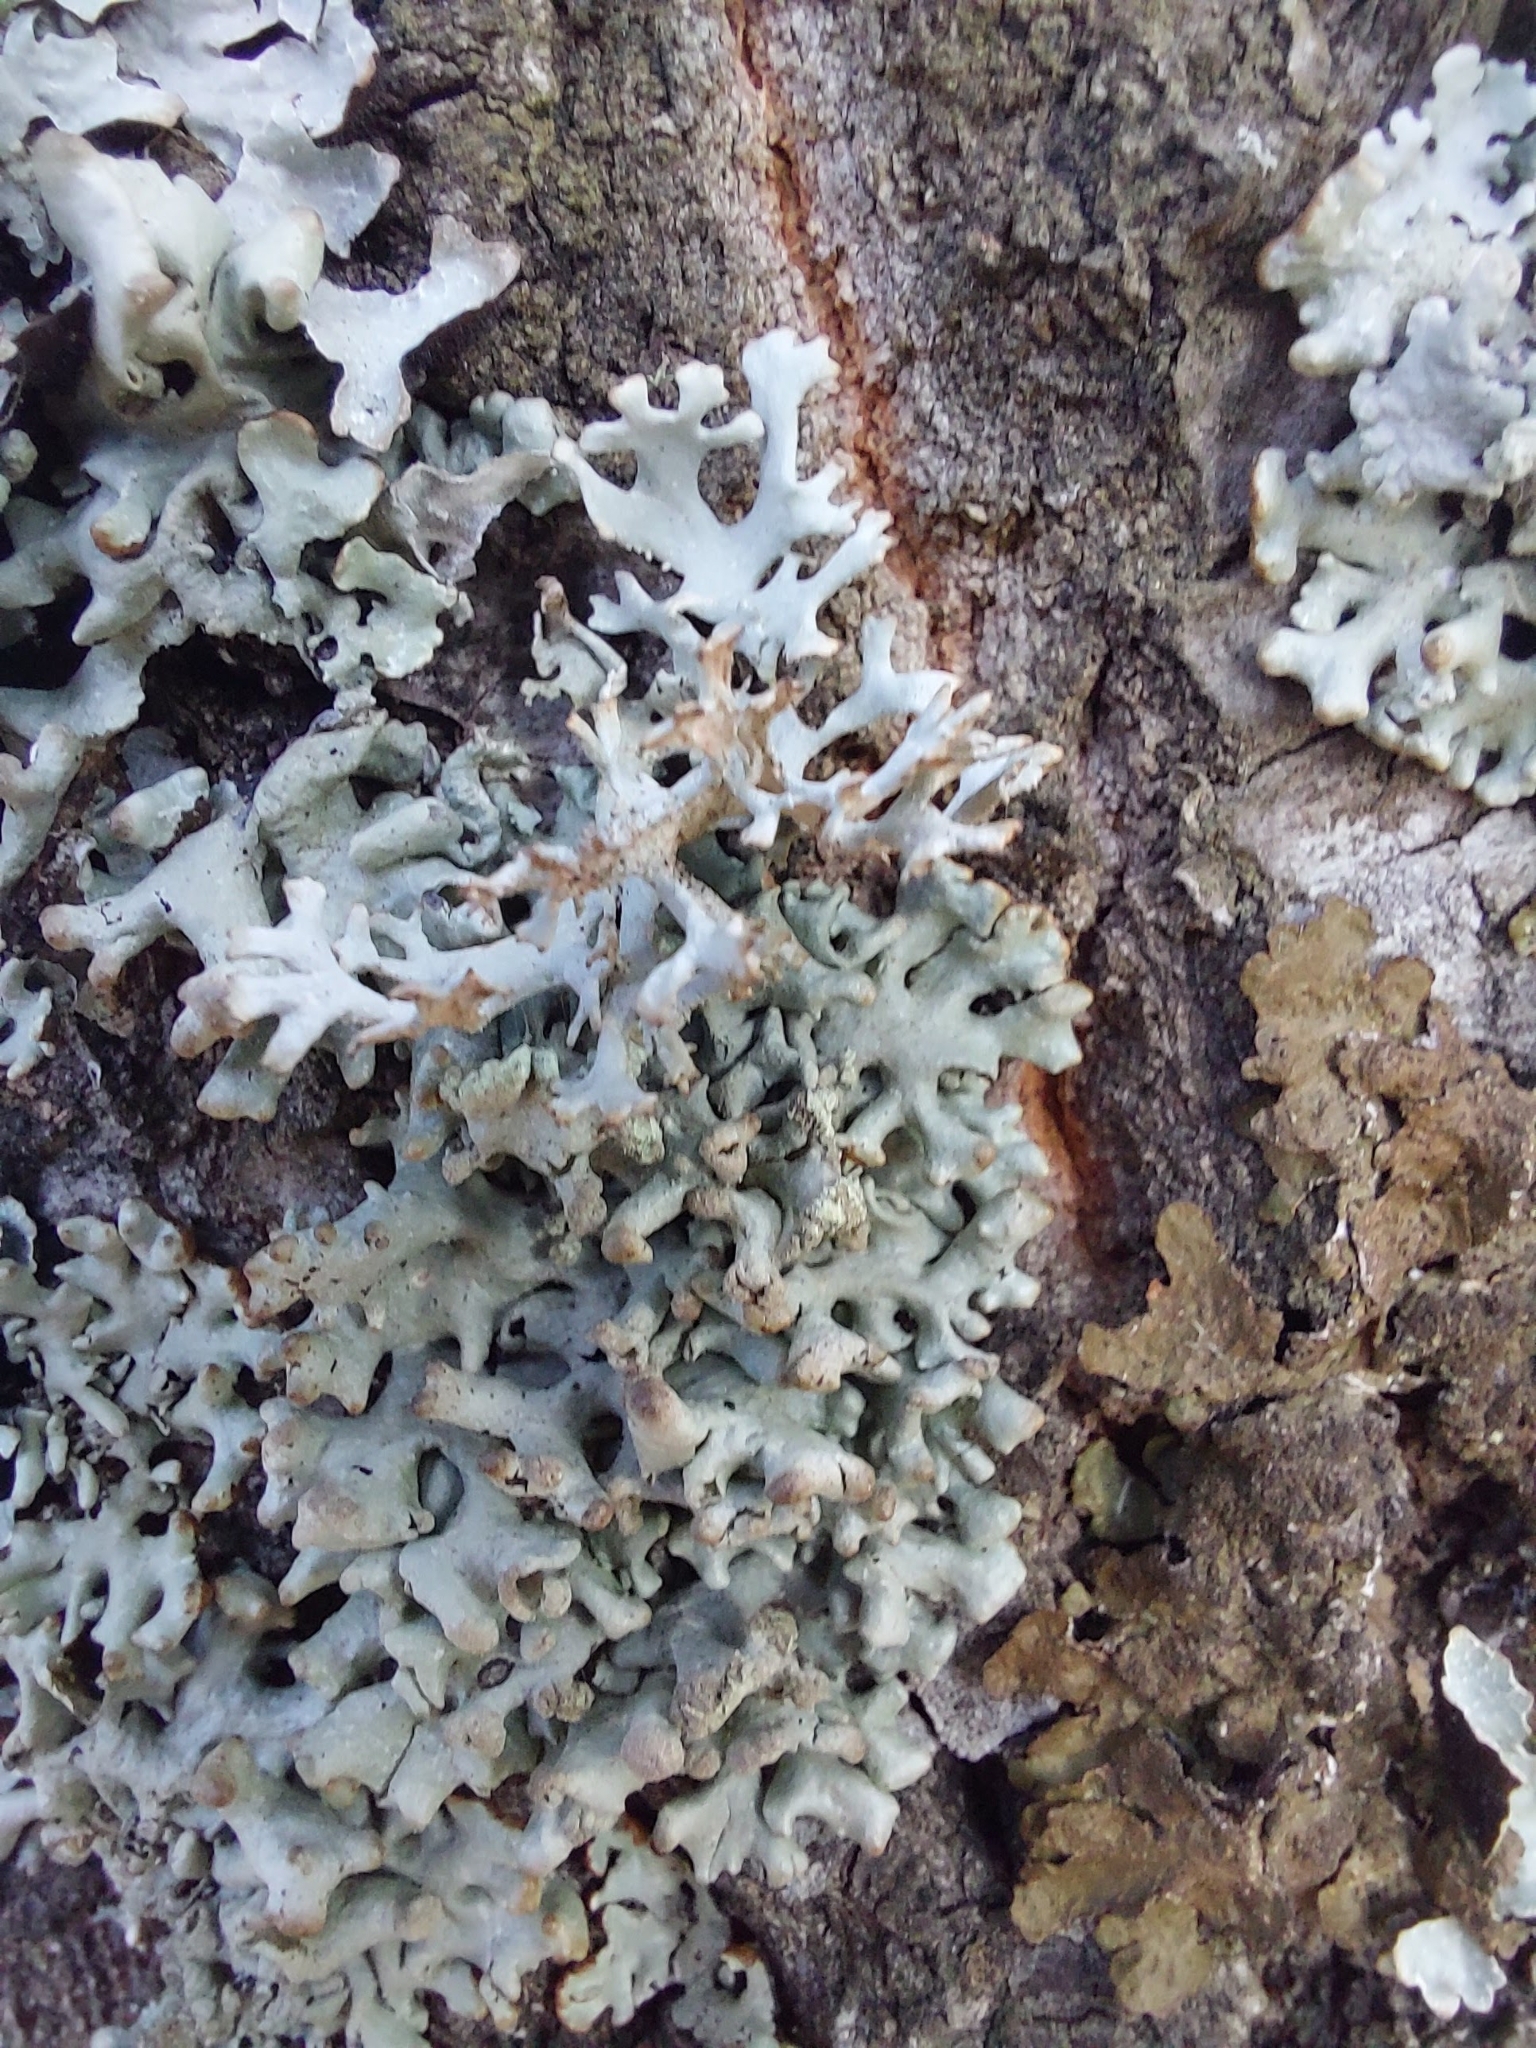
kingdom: Fungi
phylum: Ascomycota
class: Lecanoromycetes
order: Lecanorales
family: Parmeliaceae
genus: Hypogymnia
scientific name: Hypogymnia tubulosa
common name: Powder-headed tube lichen
